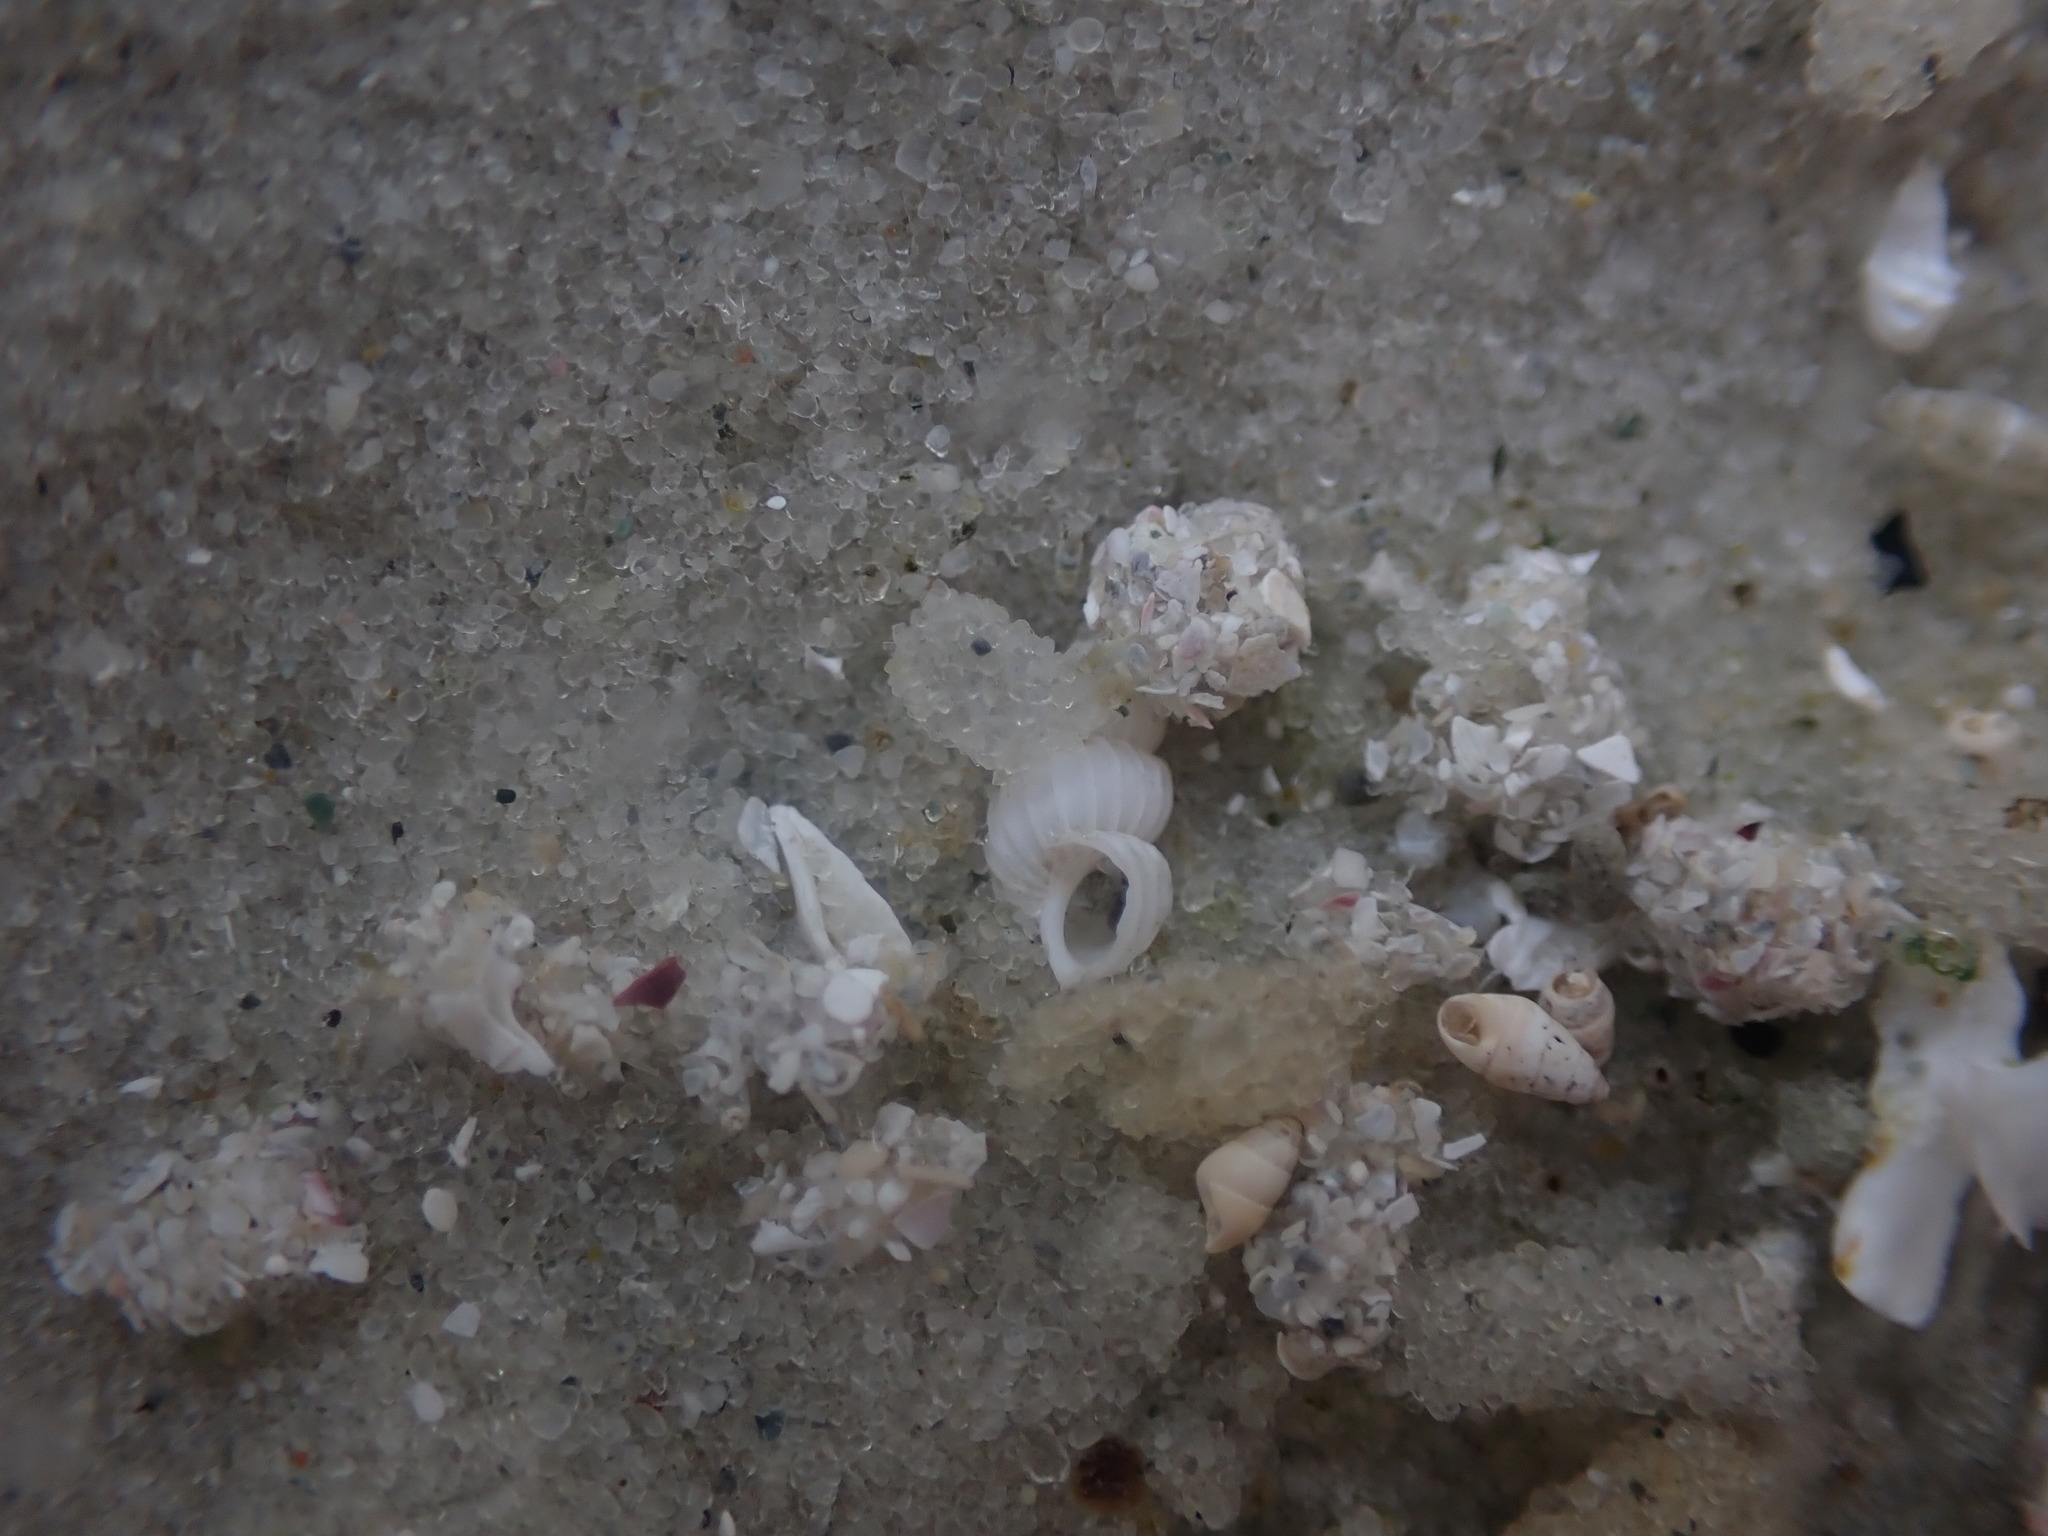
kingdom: Animalia
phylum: Mollusca
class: Gastropoda
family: Epitoniidae
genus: Epitonium
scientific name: Epitonium jukesianum
